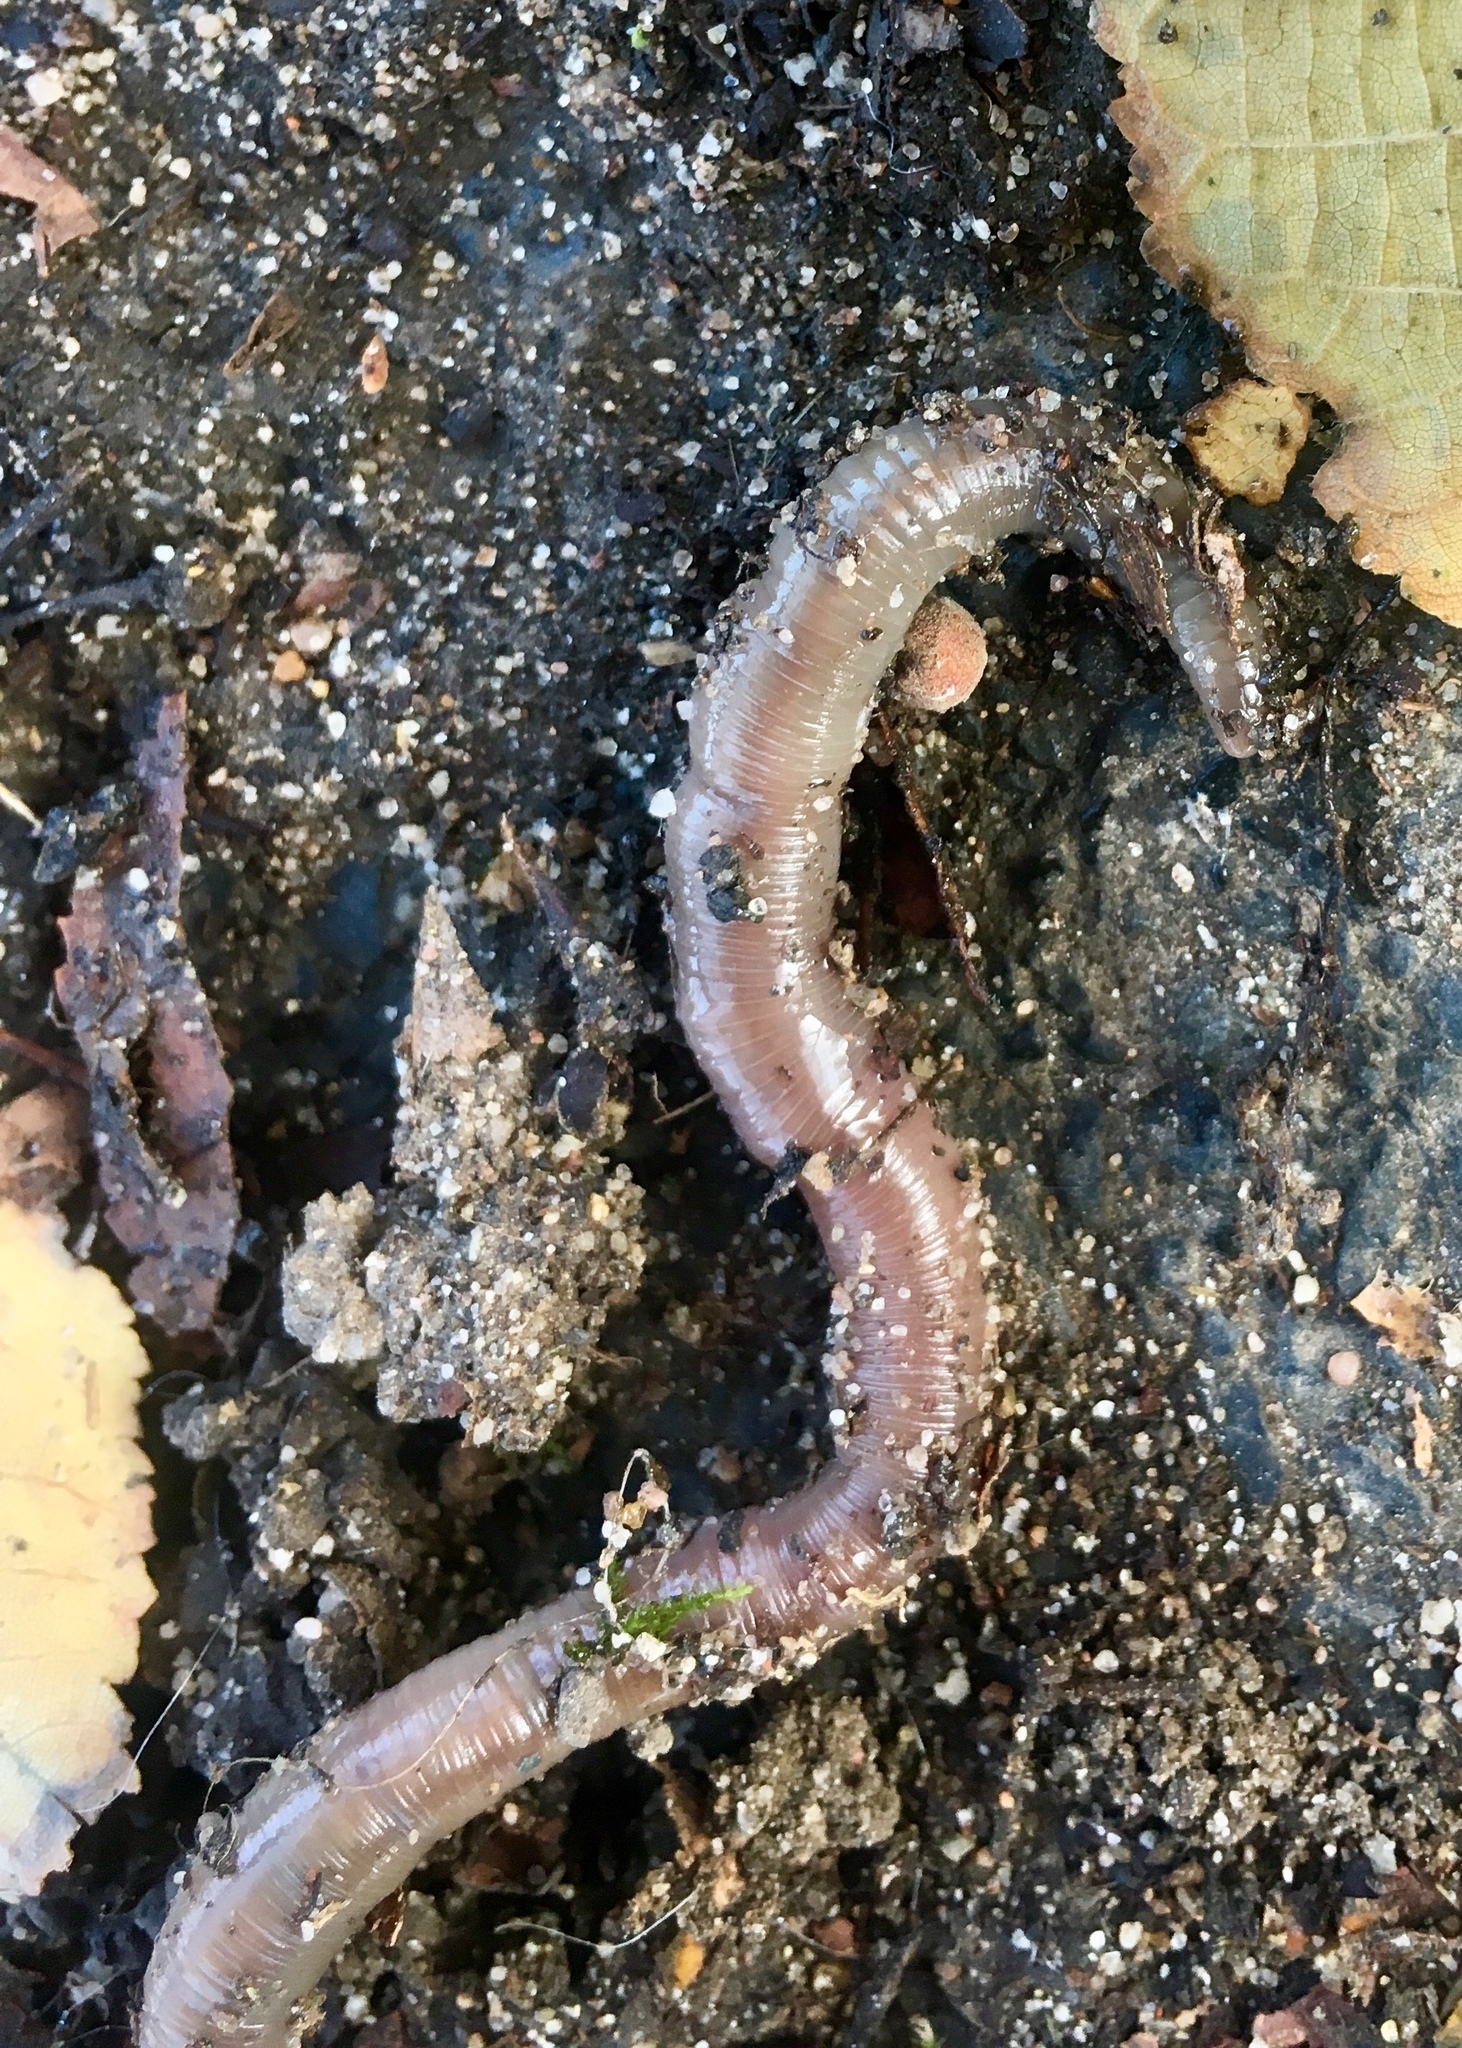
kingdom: Animalia
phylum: Annelida
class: Clitellata
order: Crassiclitellata
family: Lumbricidae
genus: Lumbricus
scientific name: Lumbricus terrestris
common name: Common earthworm
